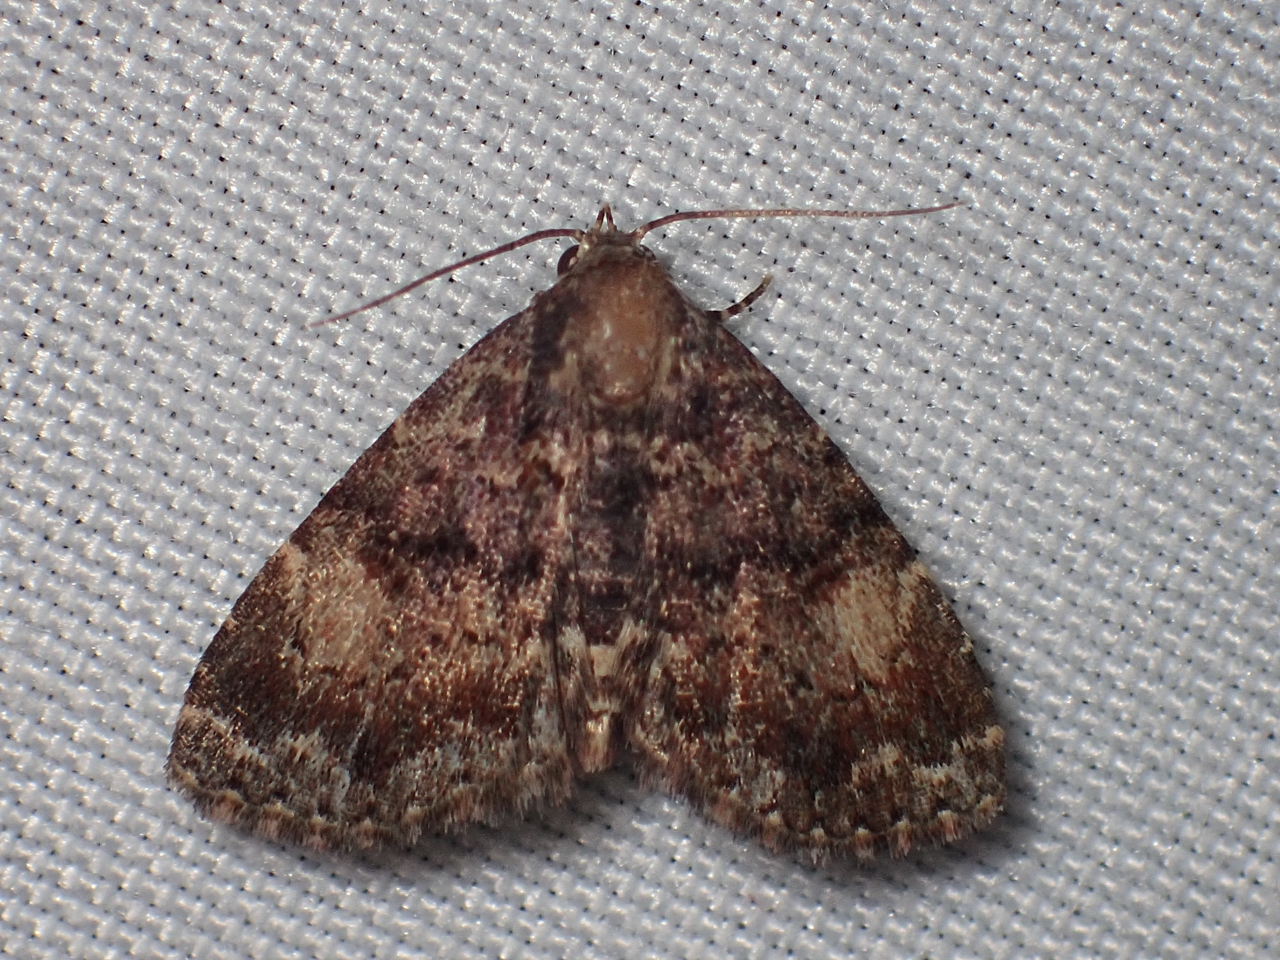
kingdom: Animalia
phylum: Arthropoda
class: Insecta
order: Lepidoptera
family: Erebidae
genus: Metalectra
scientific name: Metalectra richardsi
